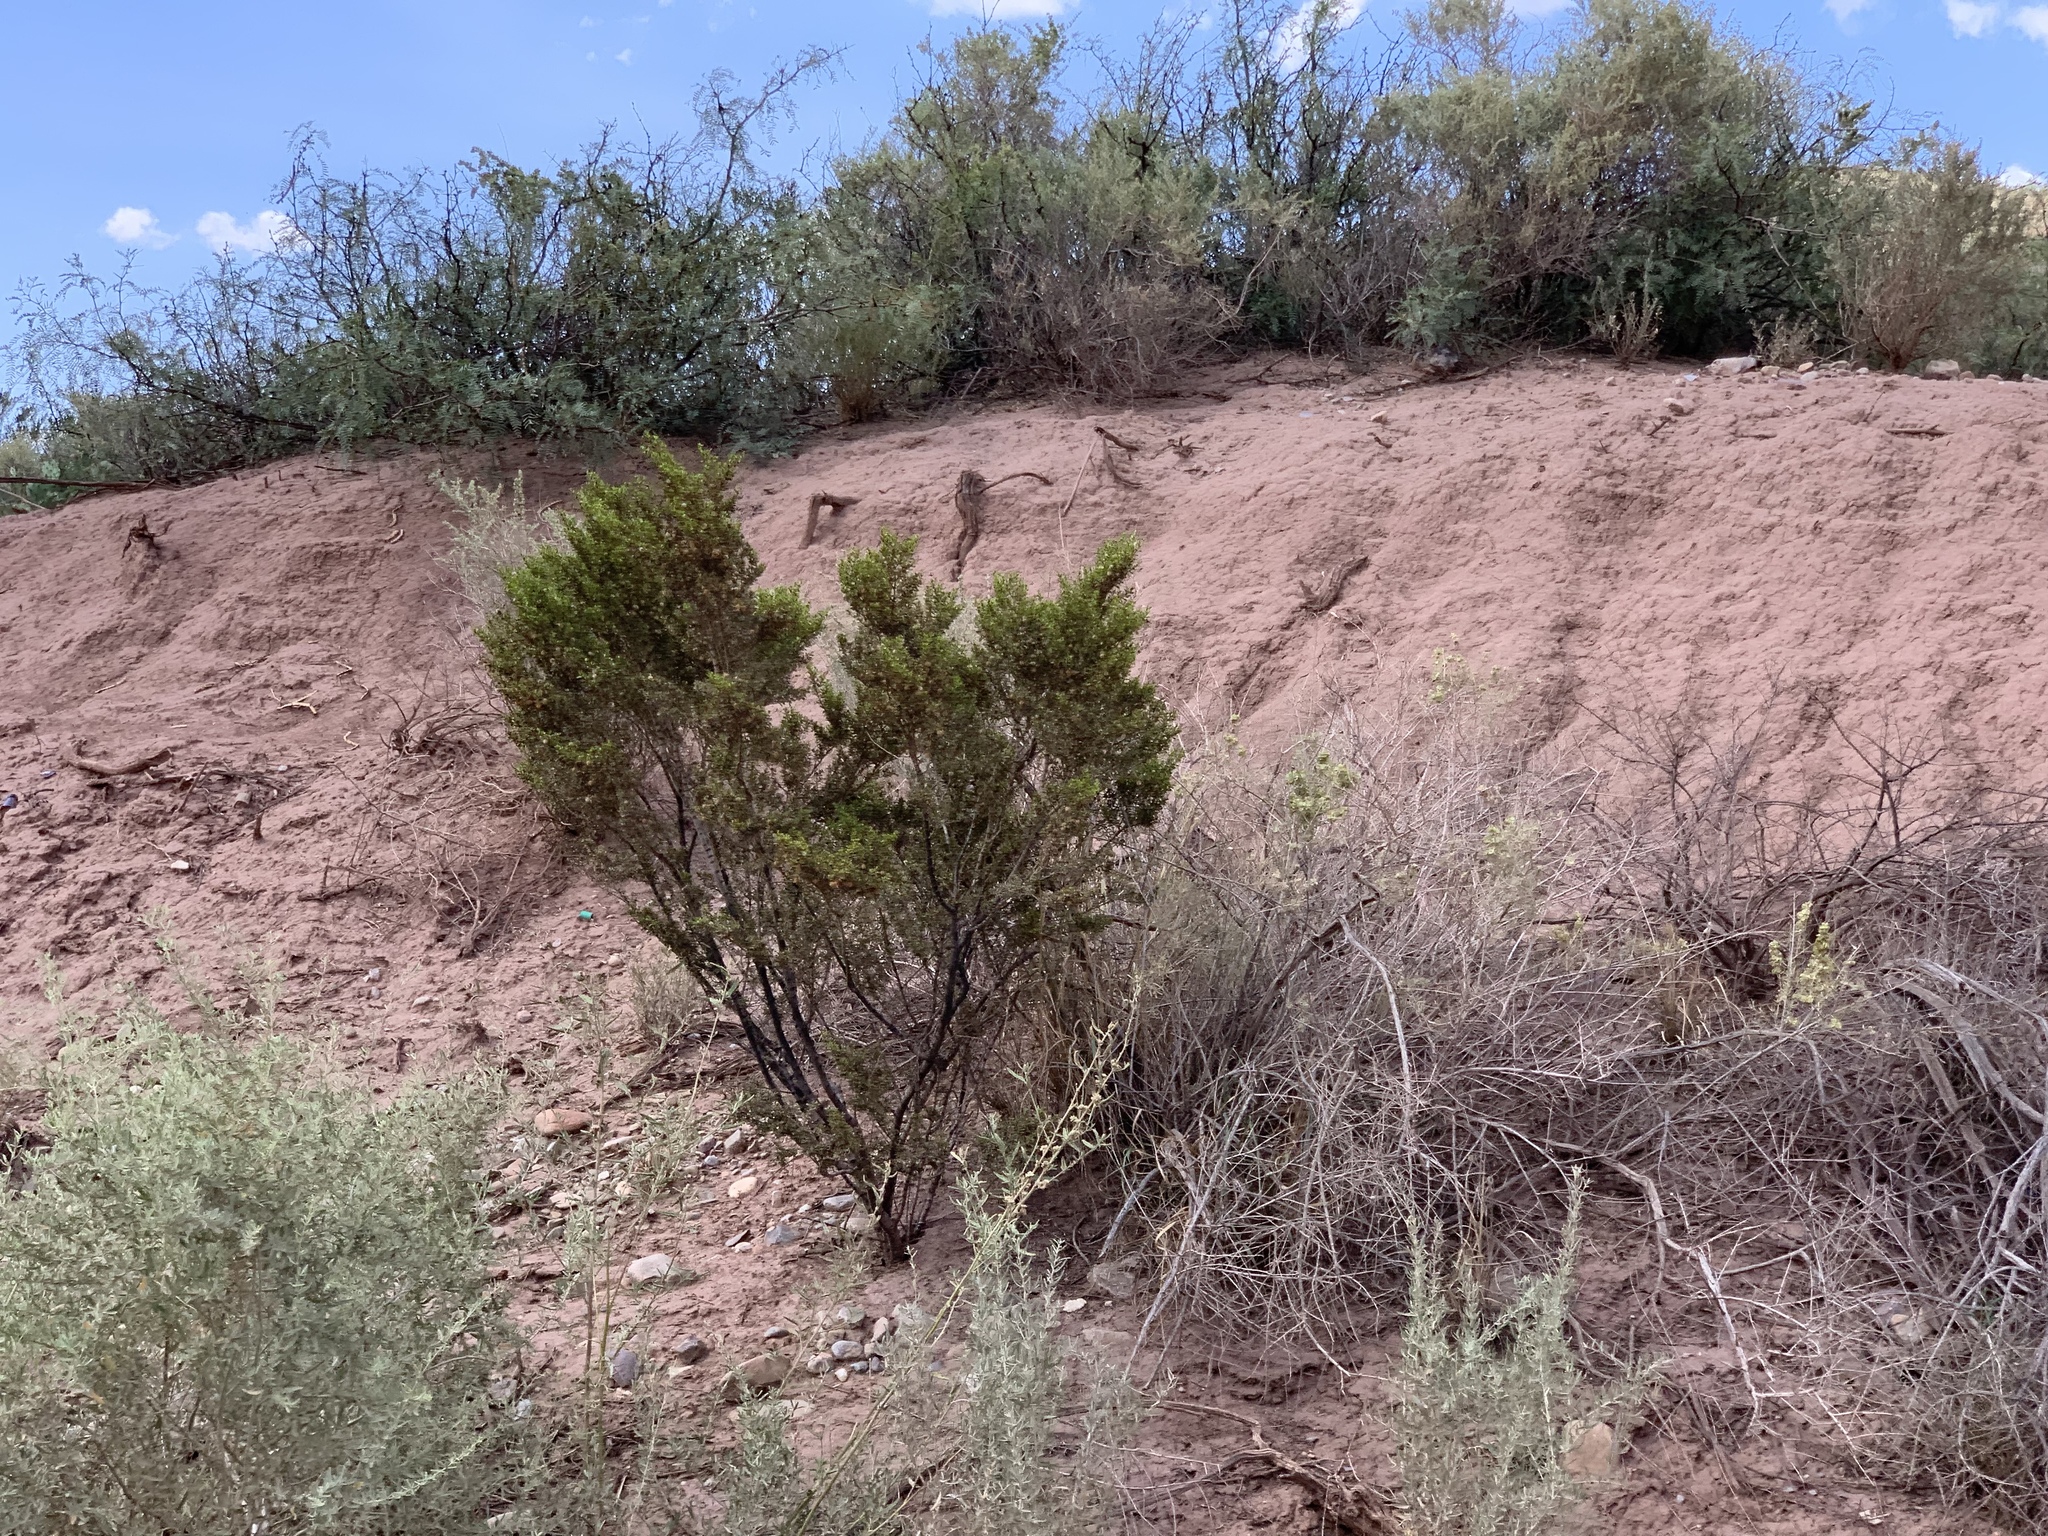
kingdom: Plantae
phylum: Tracheophyta
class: Magnoliopsida
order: Zygophyllales
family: Zygophyllaceae
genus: Larrea
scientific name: Larrea tridentata
